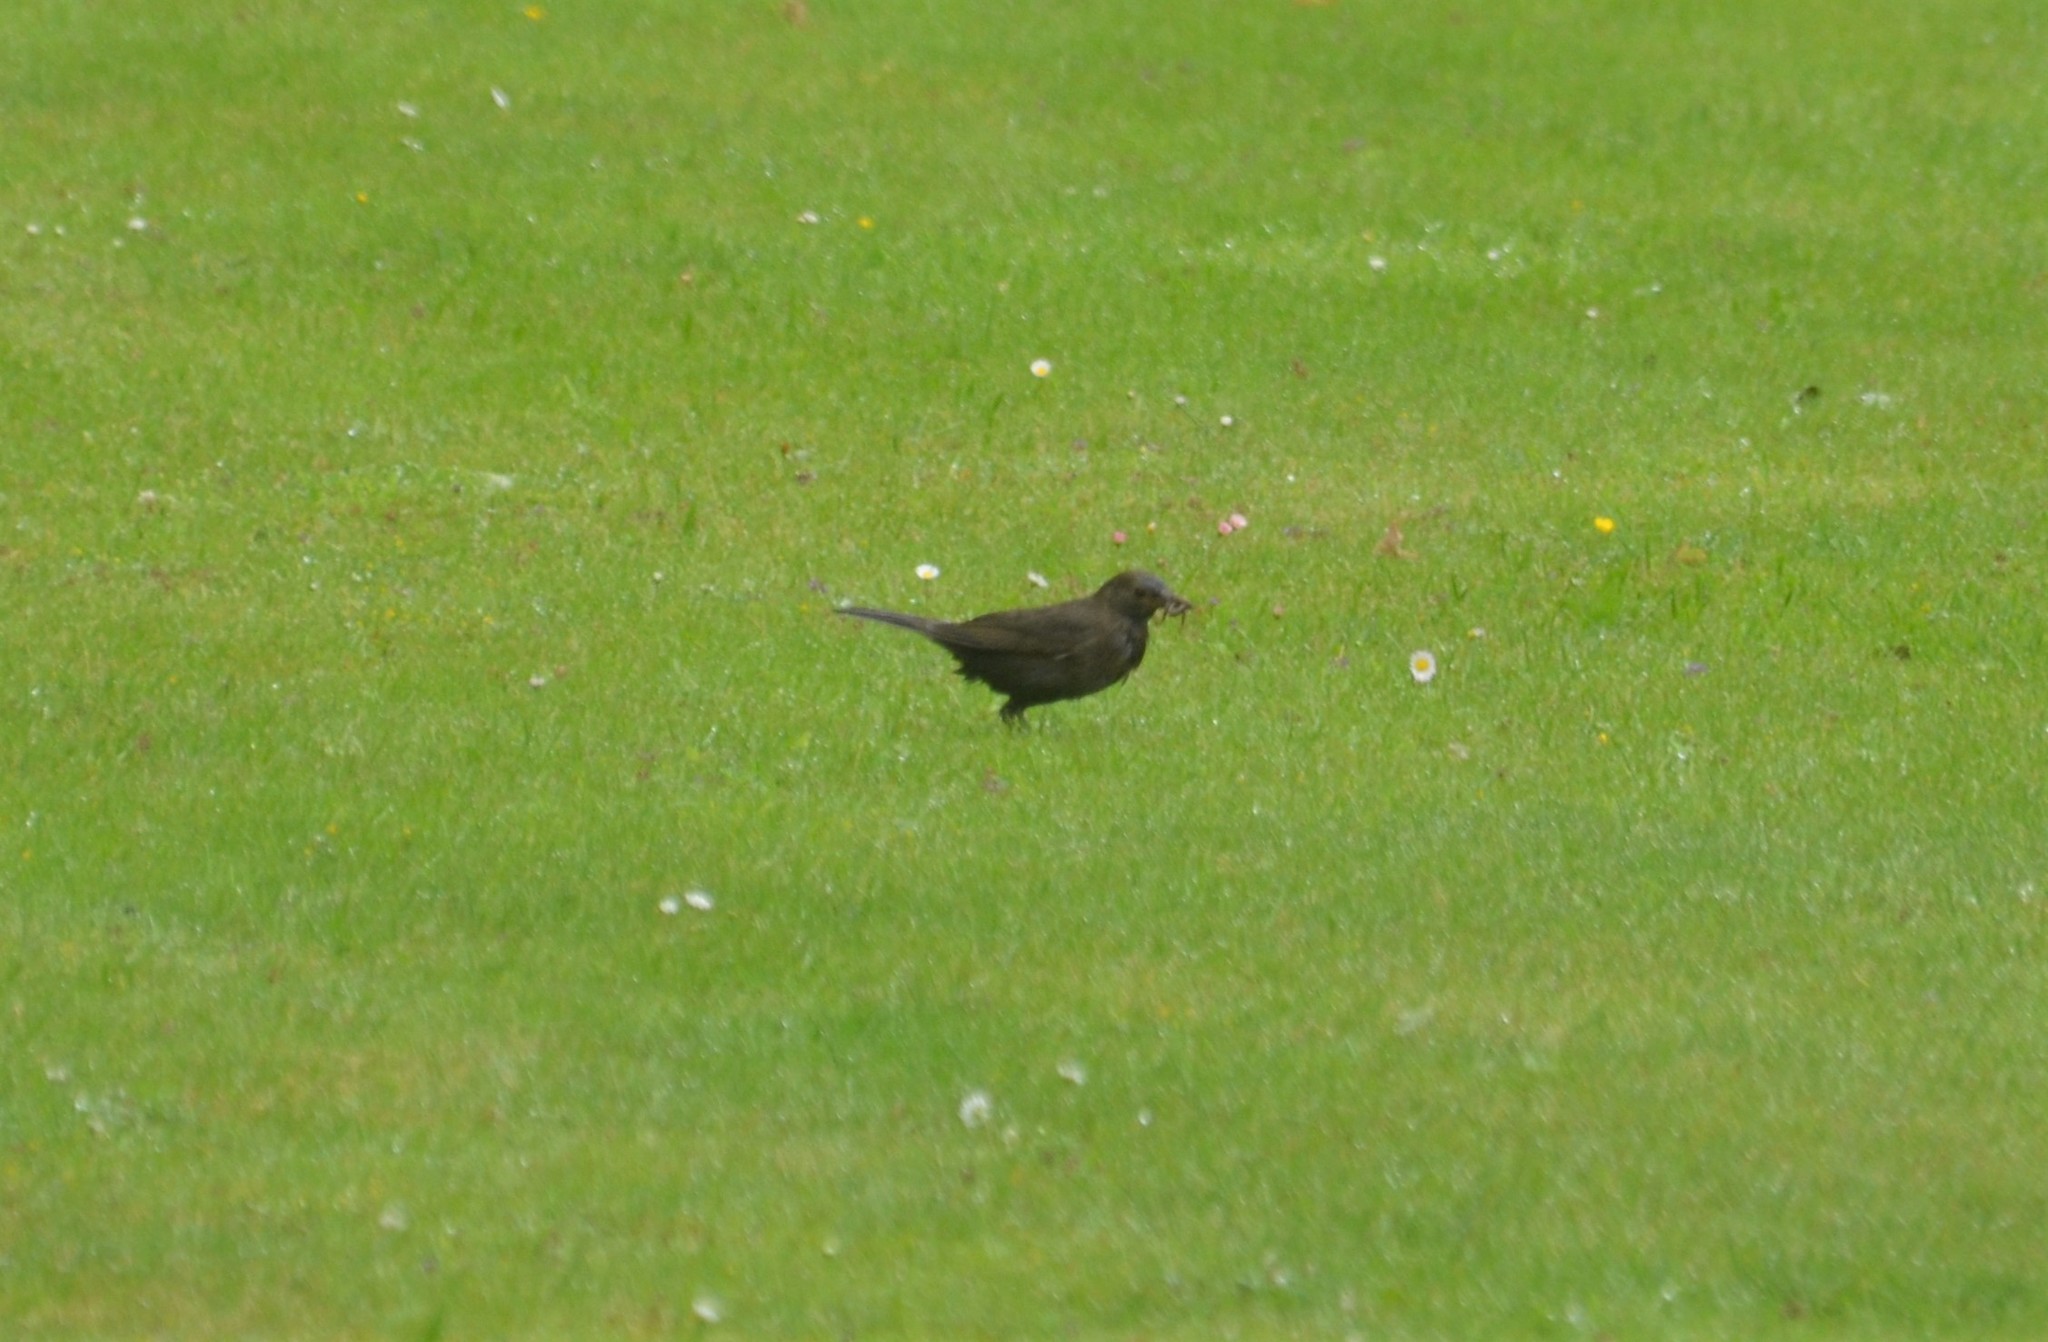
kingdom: Animalia
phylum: Chordata
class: Aves
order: Passeriformes
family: Turdidae
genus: Turdus
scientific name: Turdus merula
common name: Common blackbird
